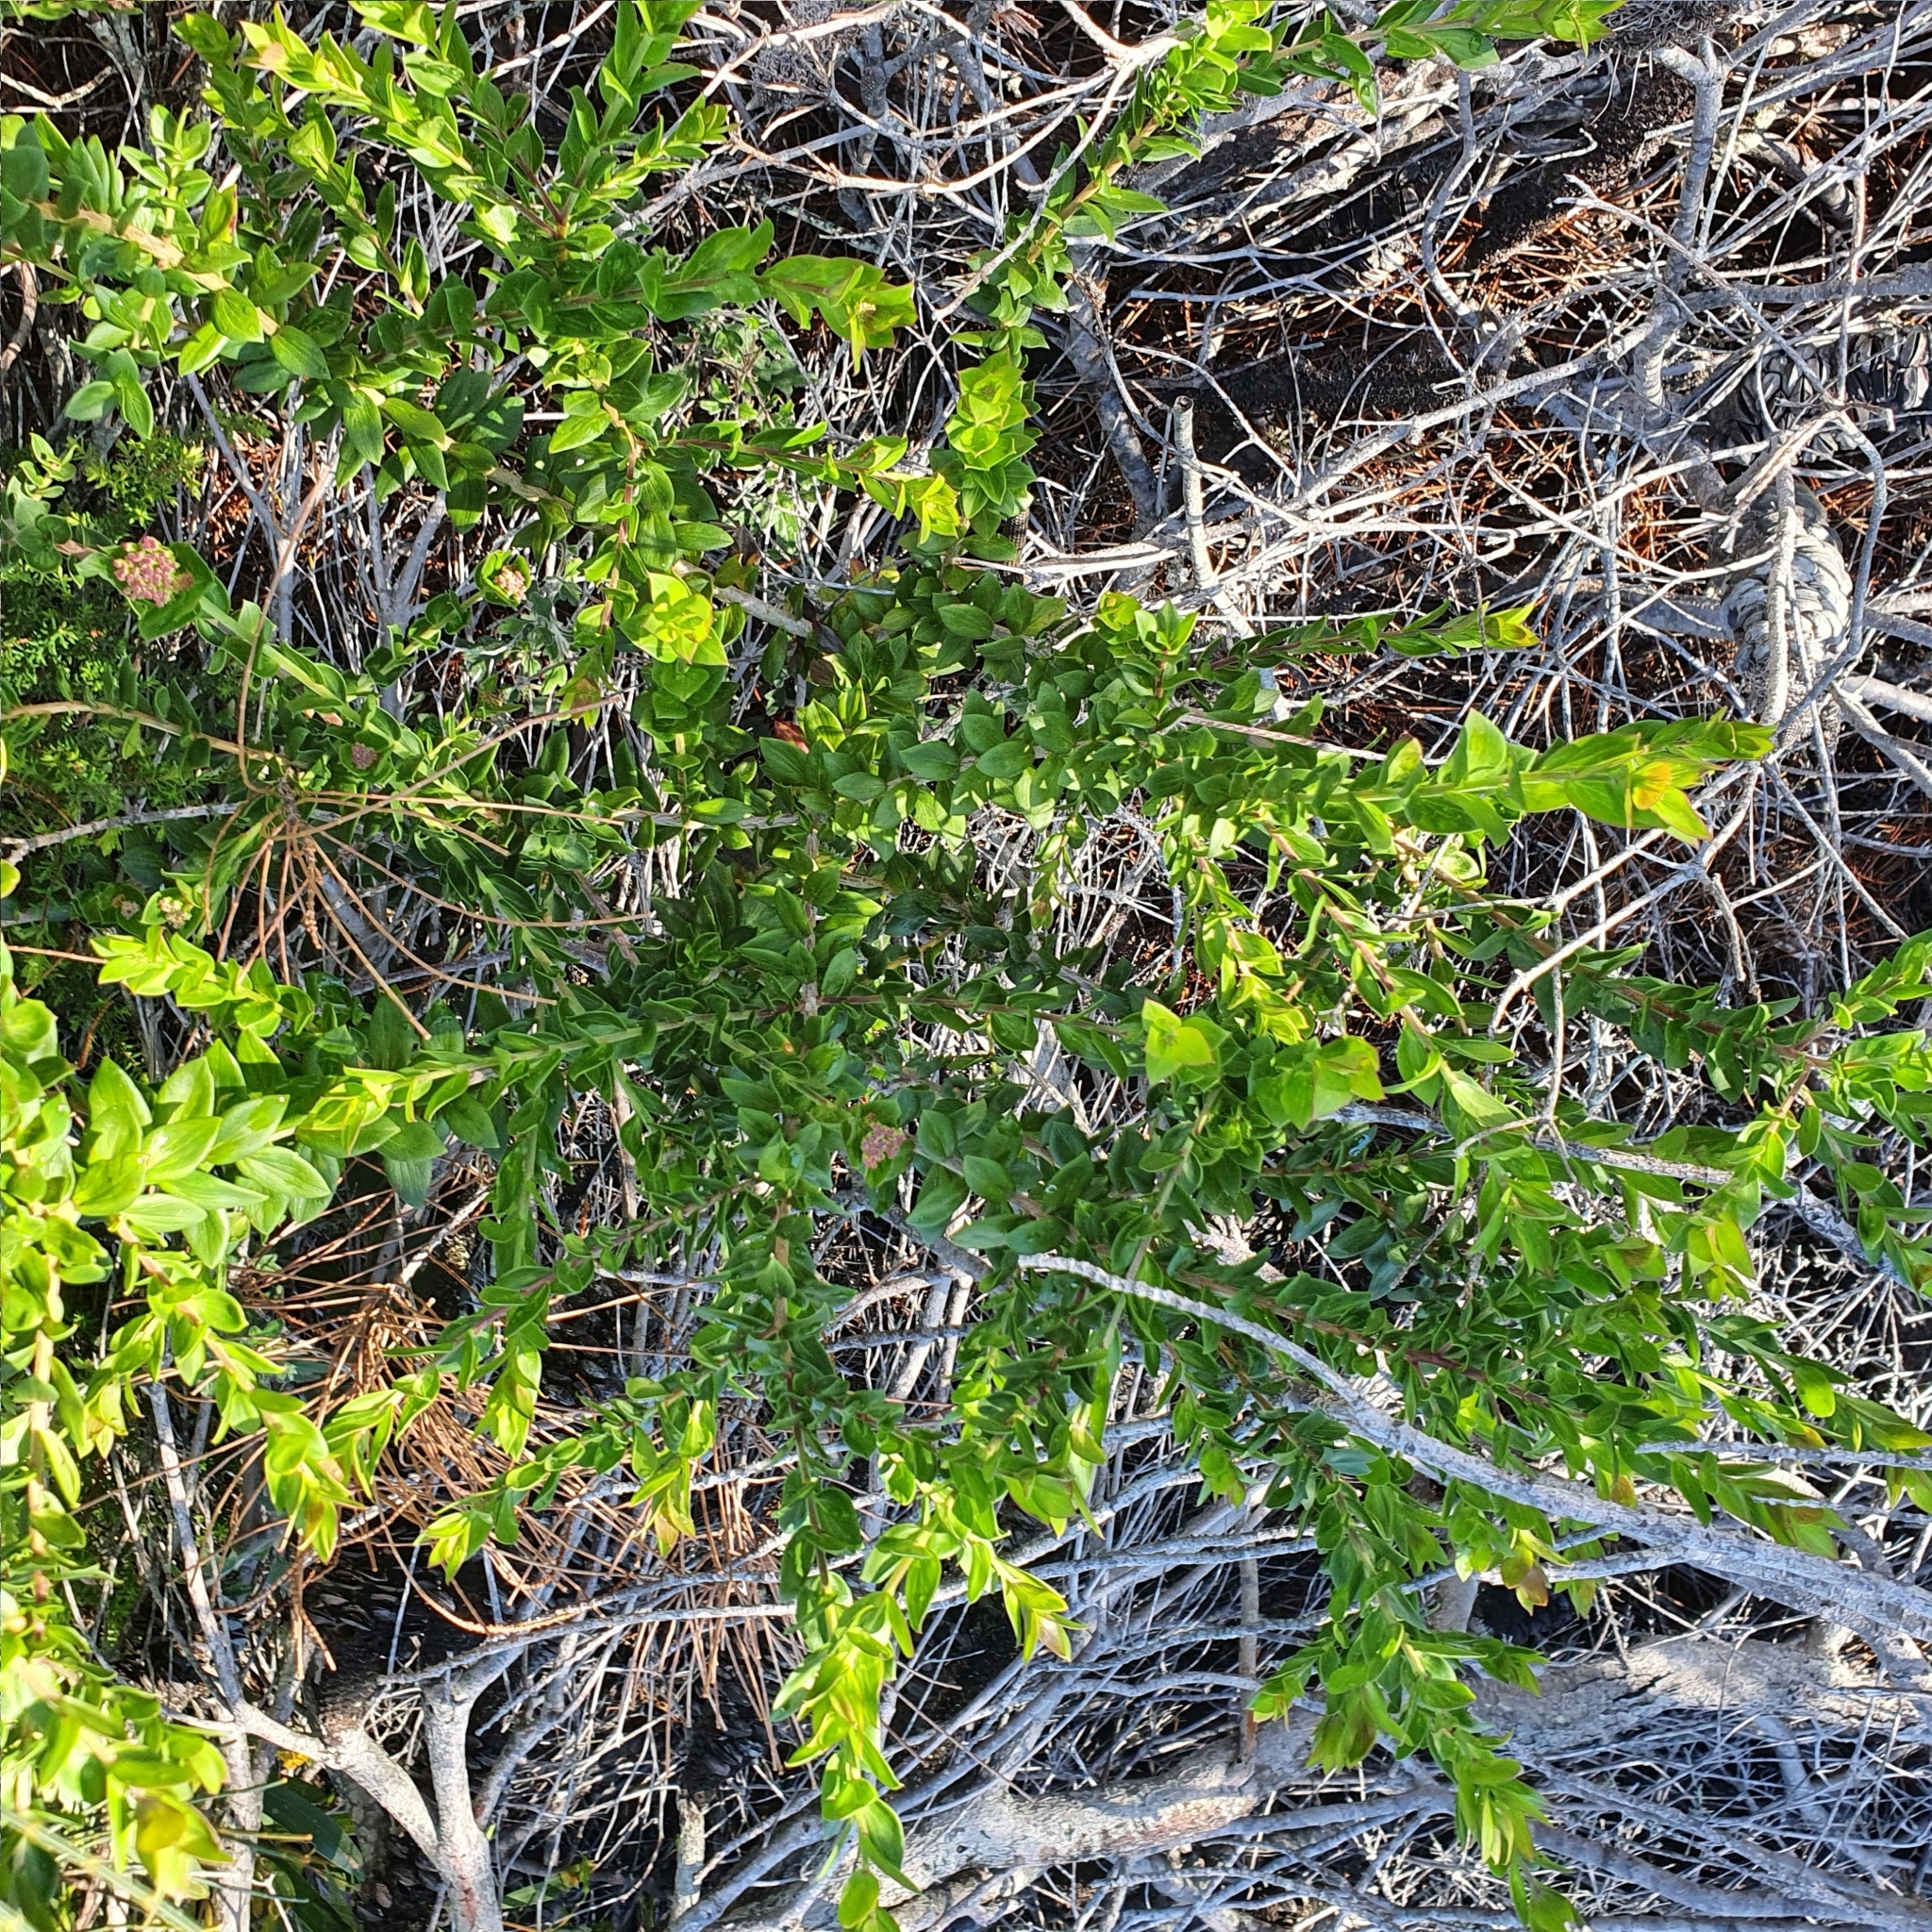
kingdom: Plantae
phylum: Tracheophyta
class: Magnoliopsida
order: Apiales
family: Apiaceae
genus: Platysace
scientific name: Platysace lanceolata
